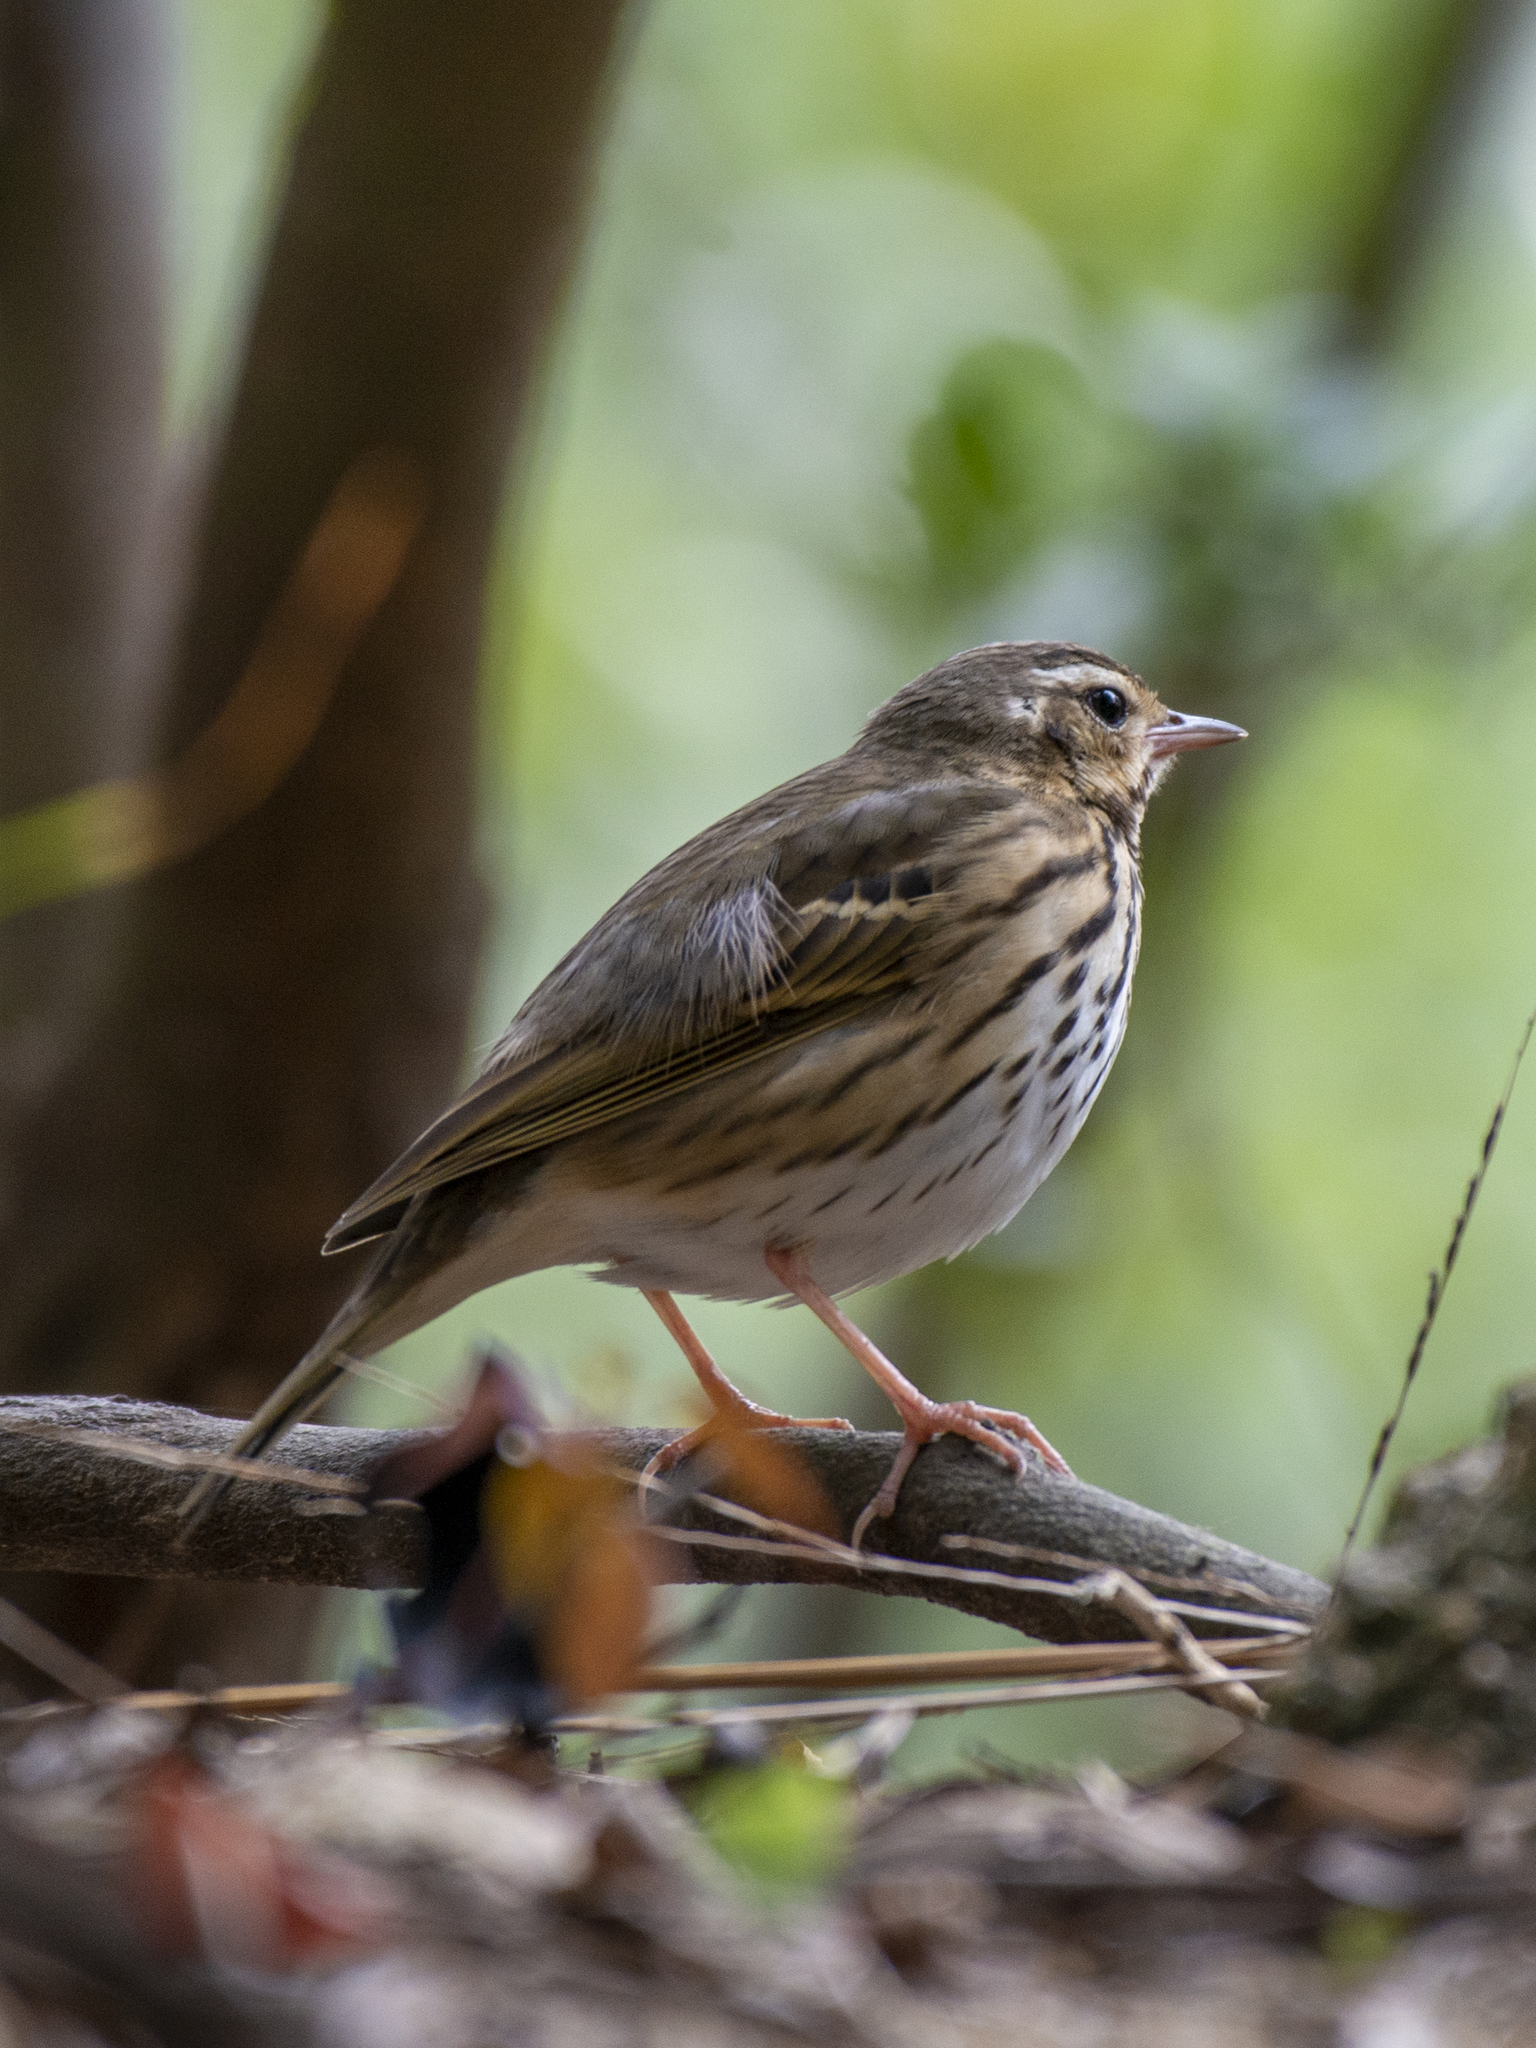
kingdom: Animalia
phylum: Chordata
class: Aves
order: Passeriformes
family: Motacillidae
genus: Anthus
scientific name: Anthus hodgsoni
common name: Olive-backed pipit
